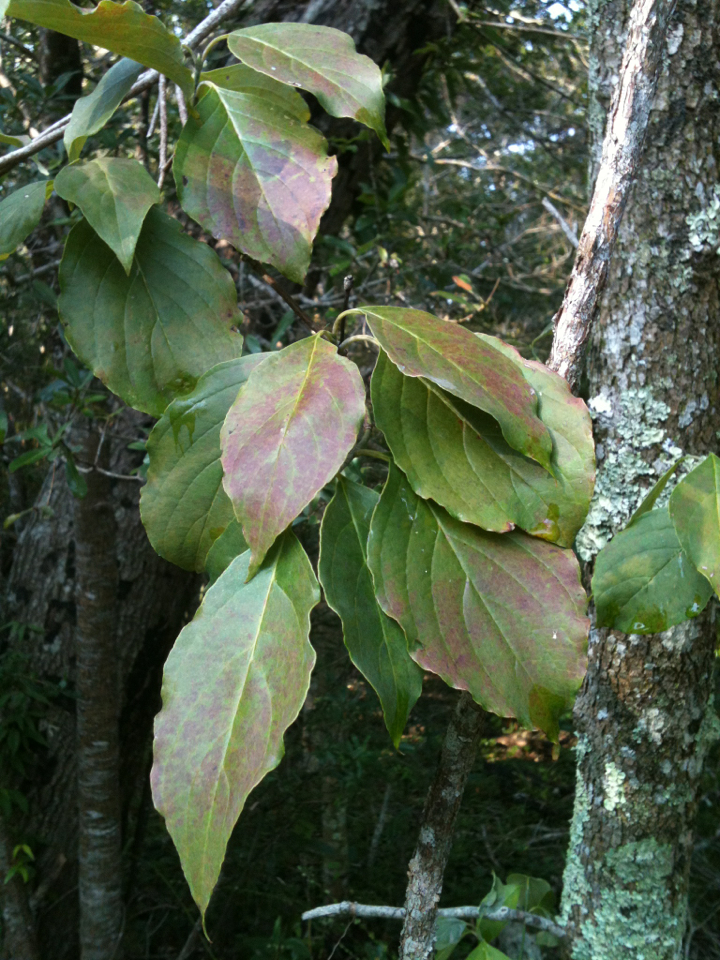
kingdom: Plantae
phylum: Tracheophyta
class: Magnoliopsida
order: Cornales
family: Cornaceae
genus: Cornus
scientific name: Cornus florida
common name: Flowering dogwood
